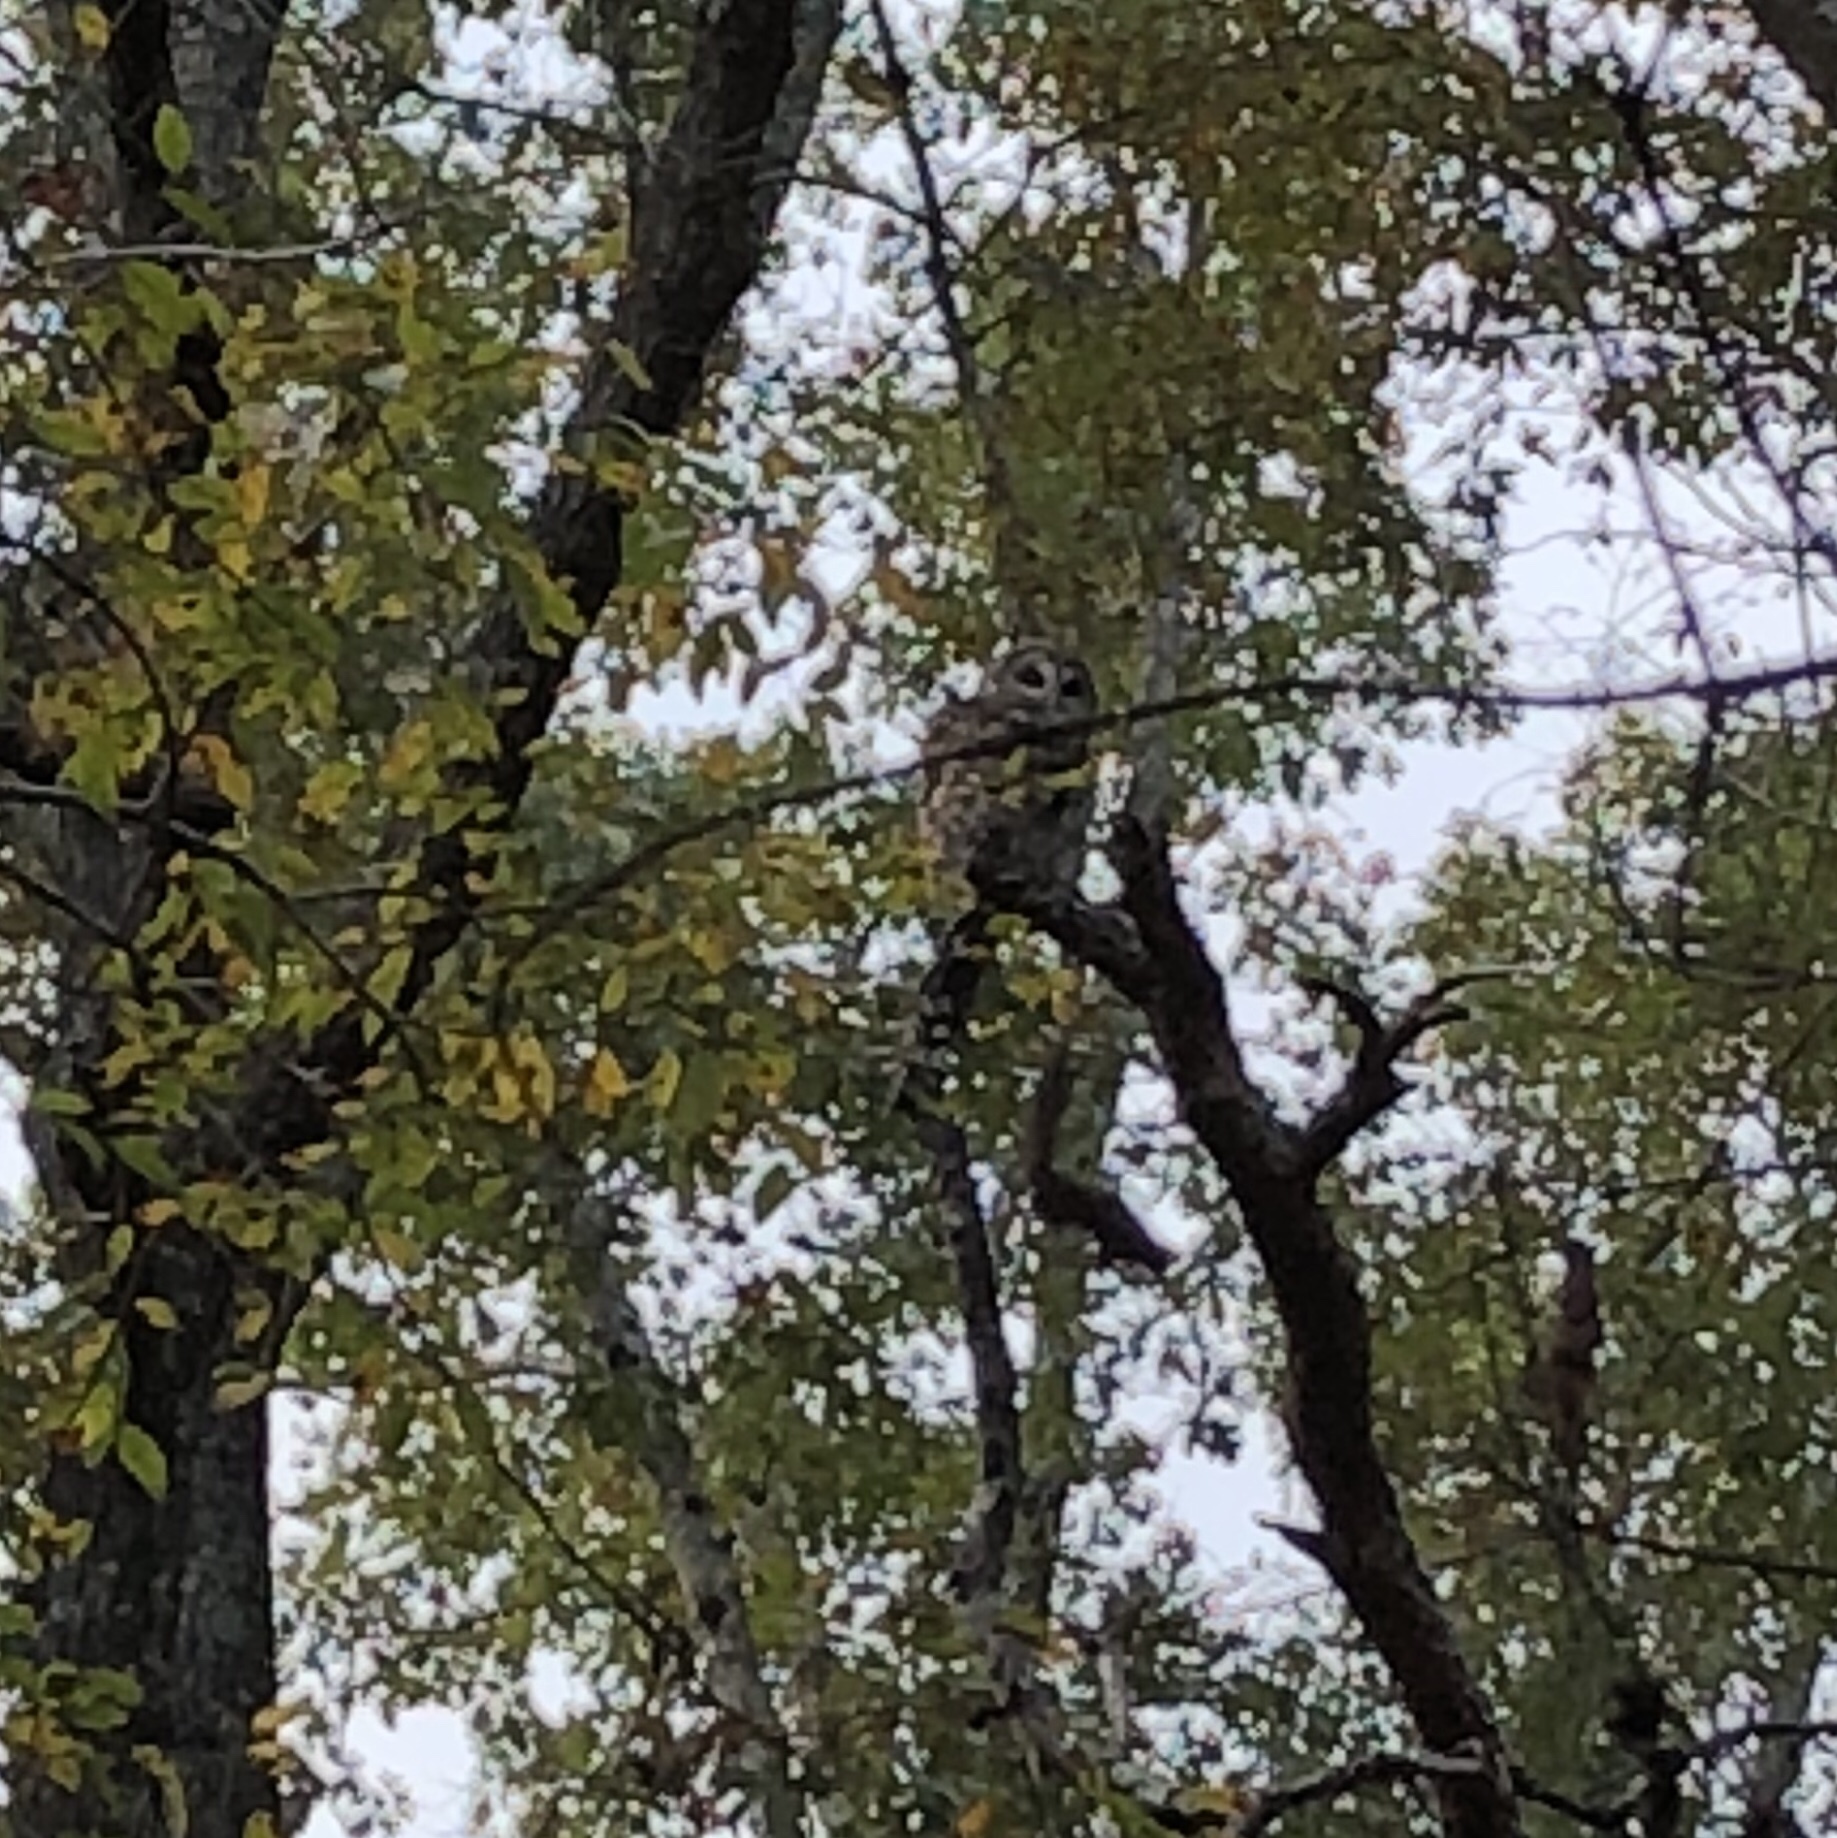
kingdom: Animalia
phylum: Chordata
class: Aves
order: Strigiformes
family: Strigidae
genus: Strix
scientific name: Strix varia
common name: Barred owl
